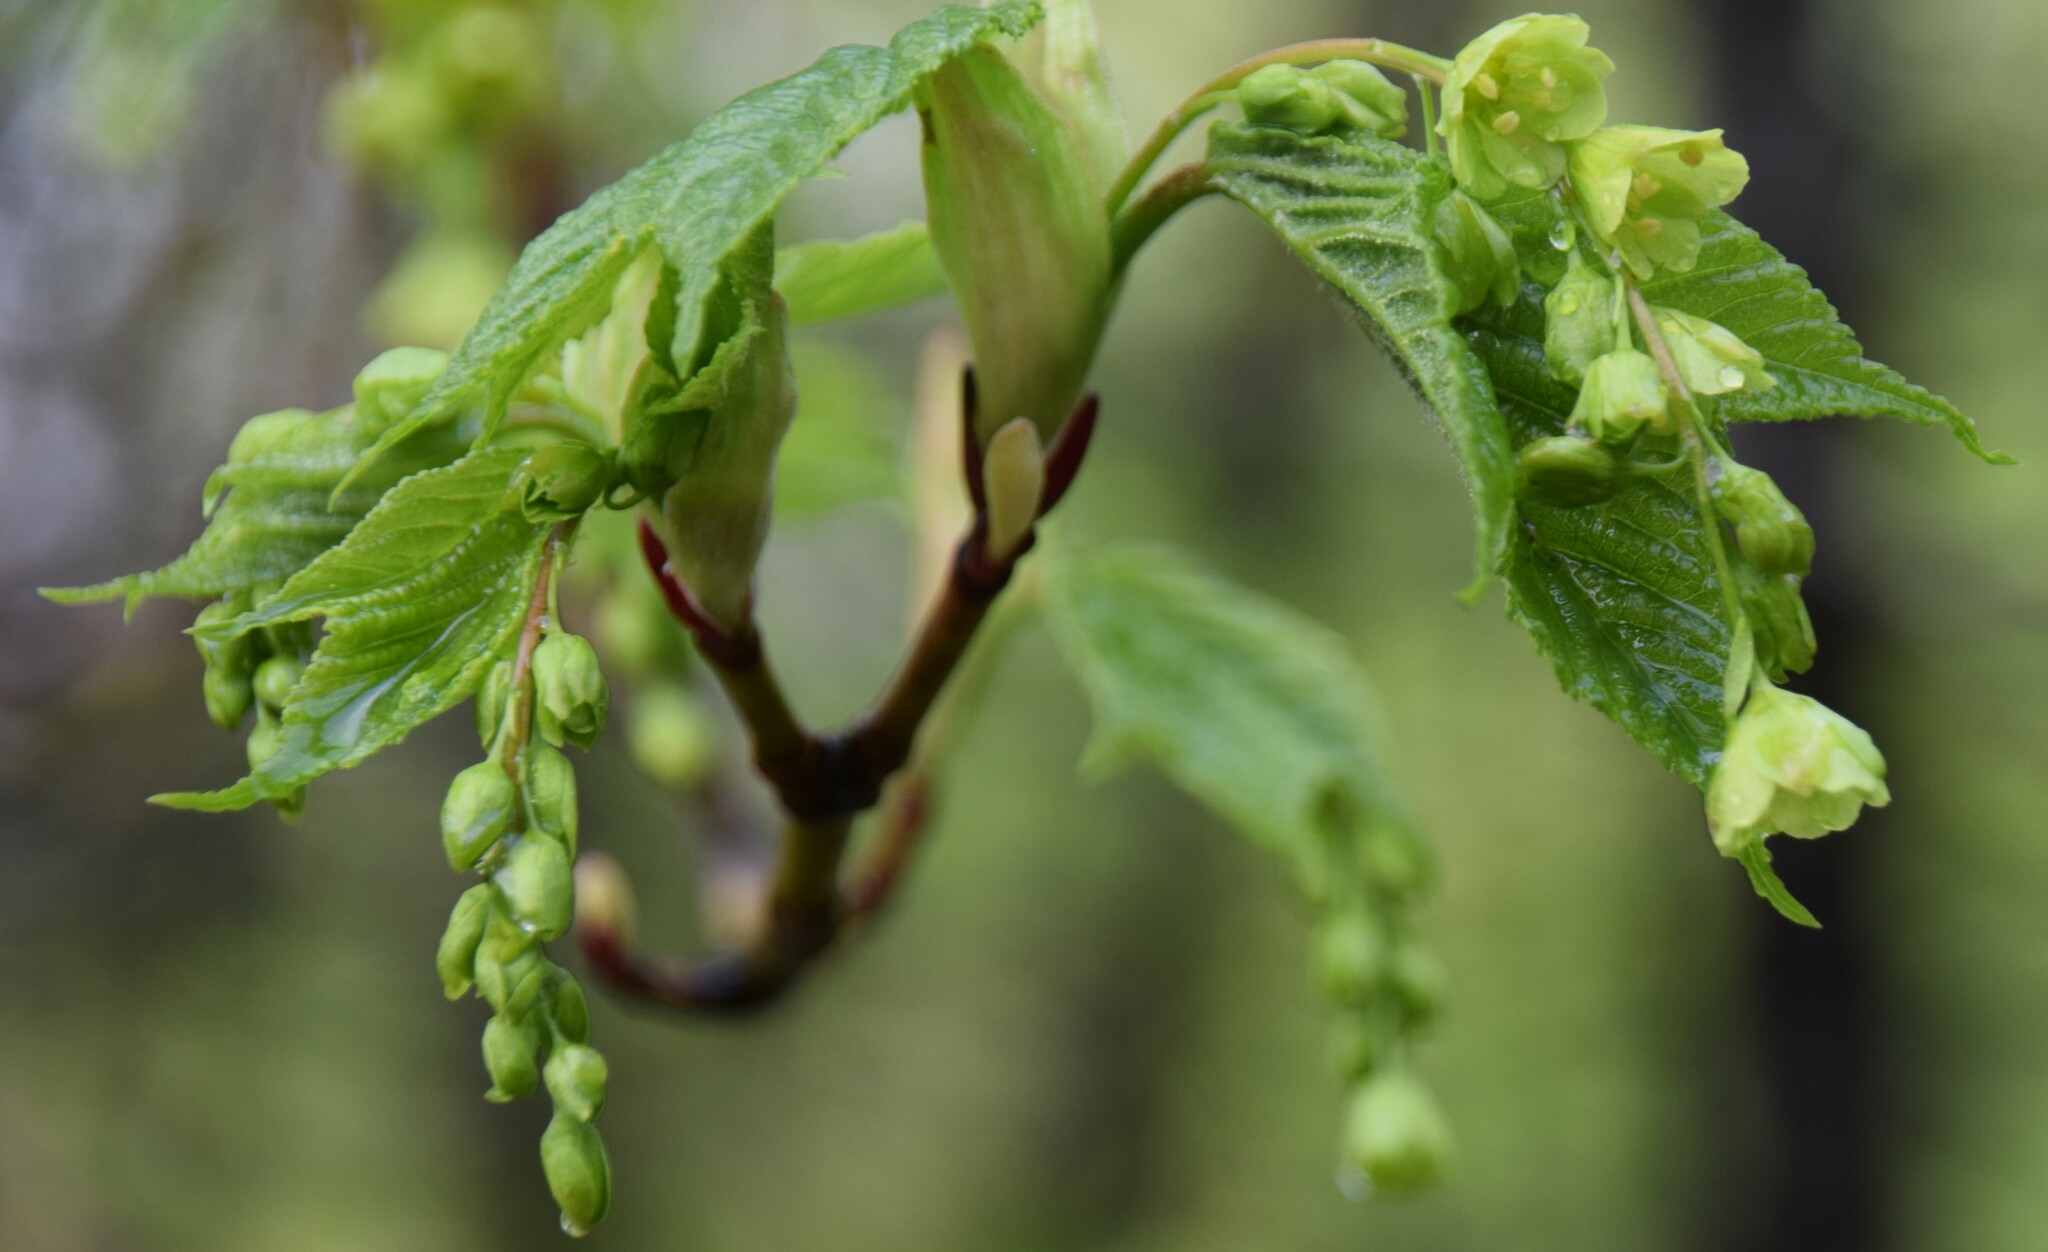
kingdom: Plantae
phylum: Tracheophyta
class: Magnoliopsida
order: Sapindales
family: Sapindaceae
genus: Acer
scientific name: Acer pensylvanicum
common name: Moosewood
